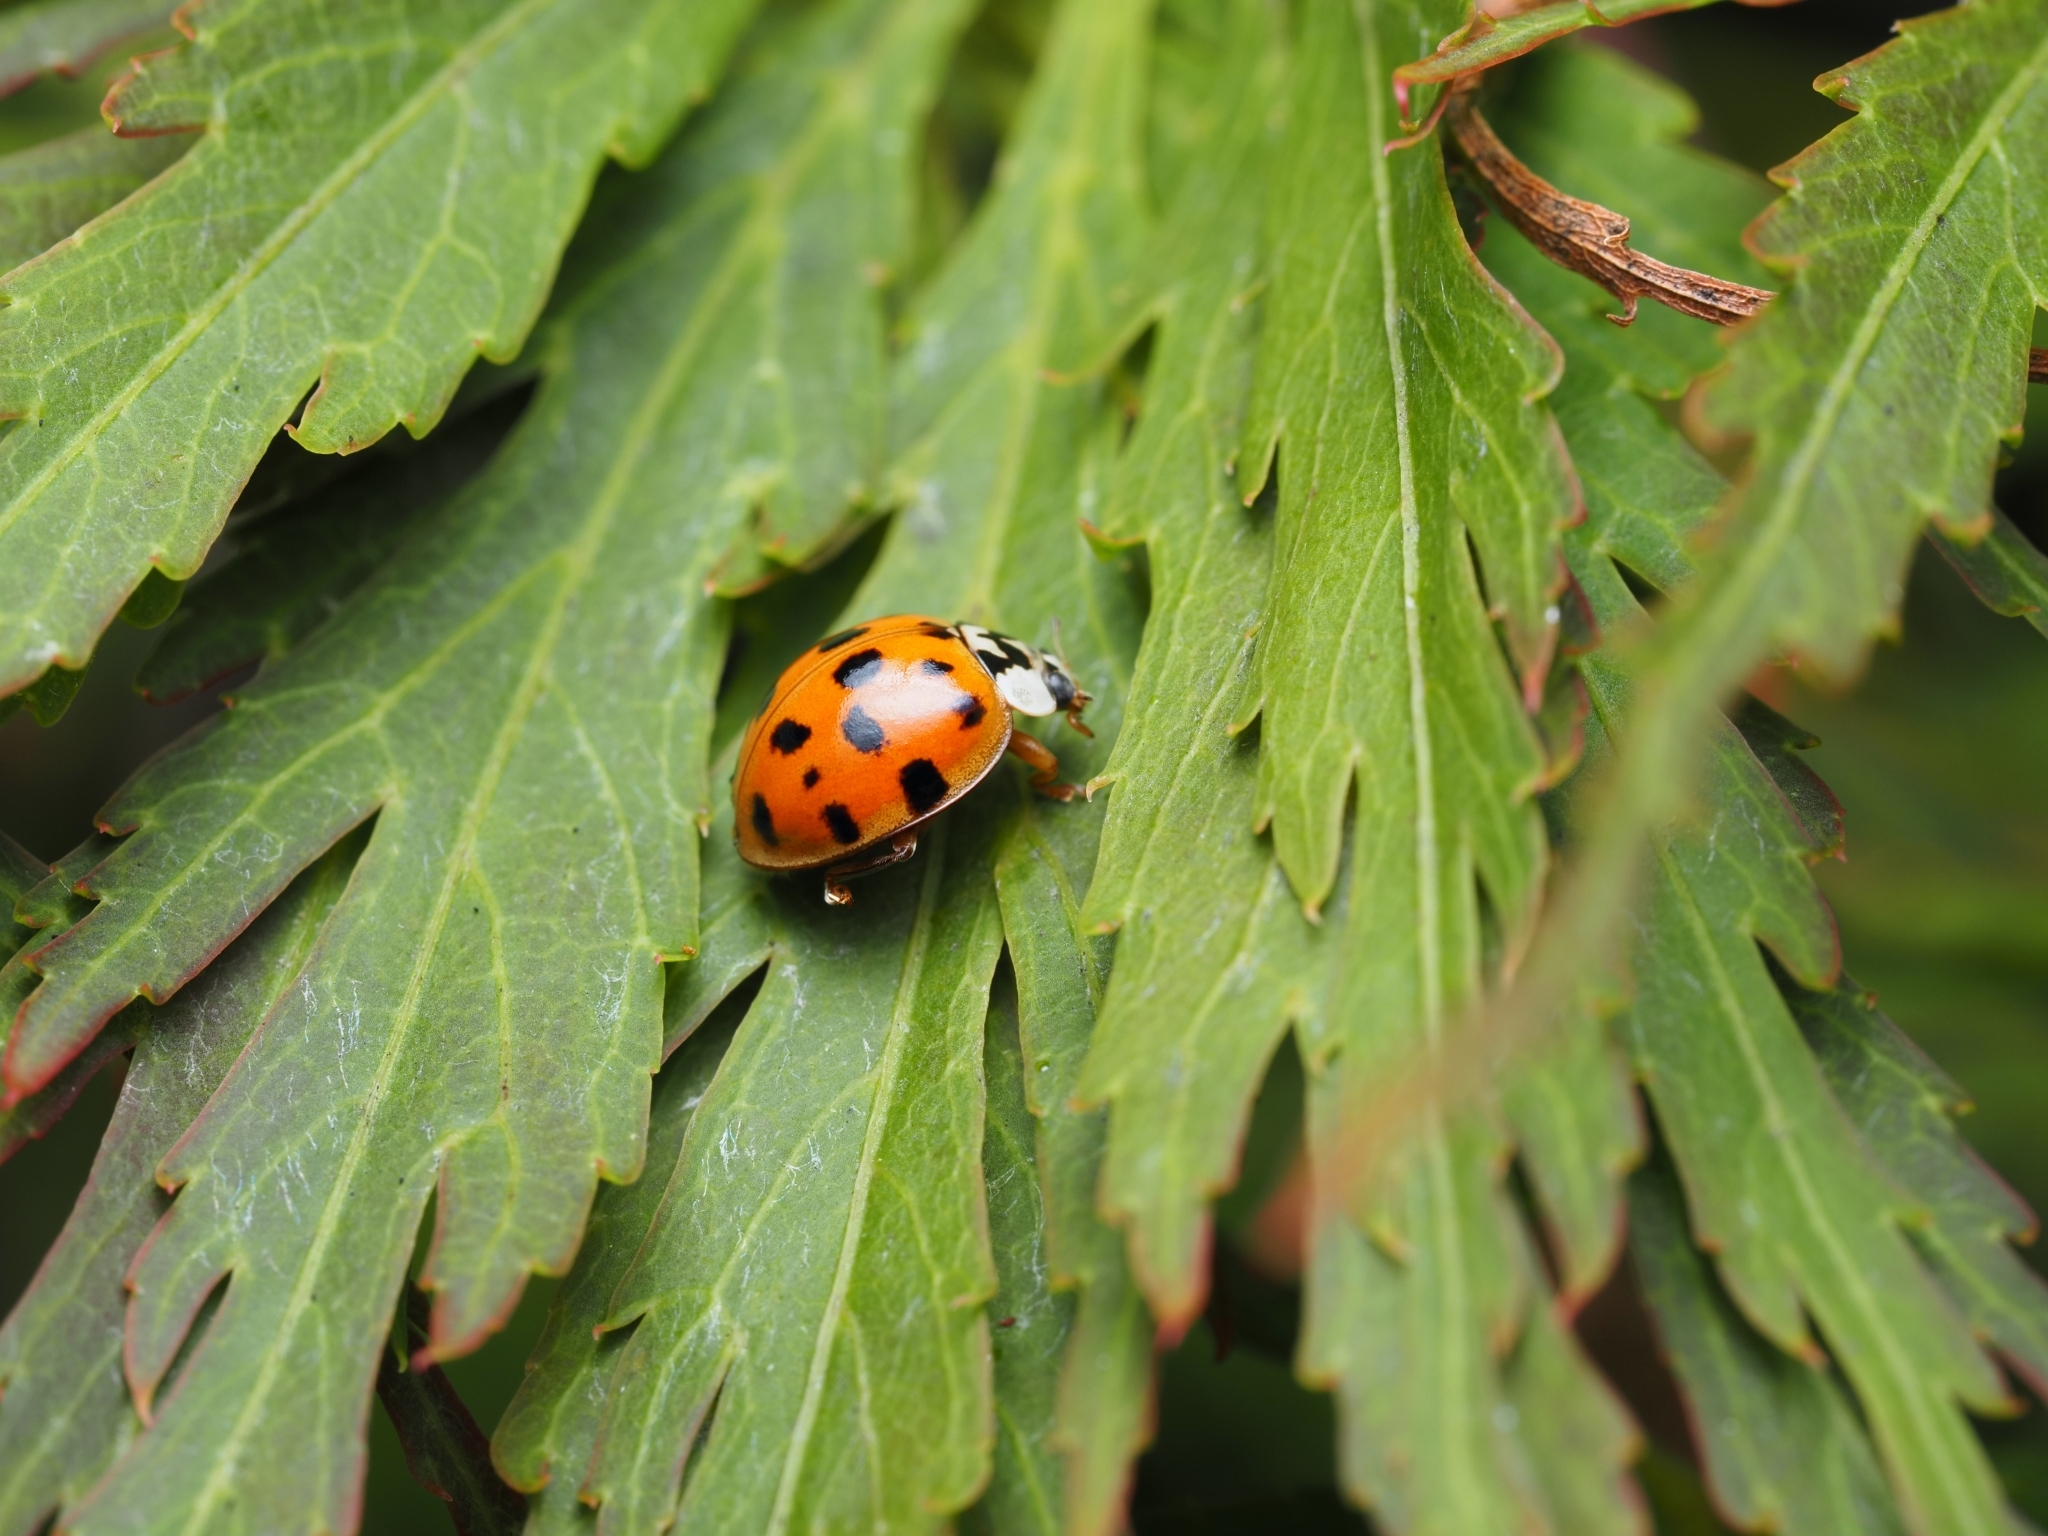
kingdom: Animalia
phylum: Arthropoda
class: Insecta
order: Coleoptera
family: Coccinellidae
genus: Harmonia
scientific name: Harmonia axyridis
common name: Harlequin ladybird
